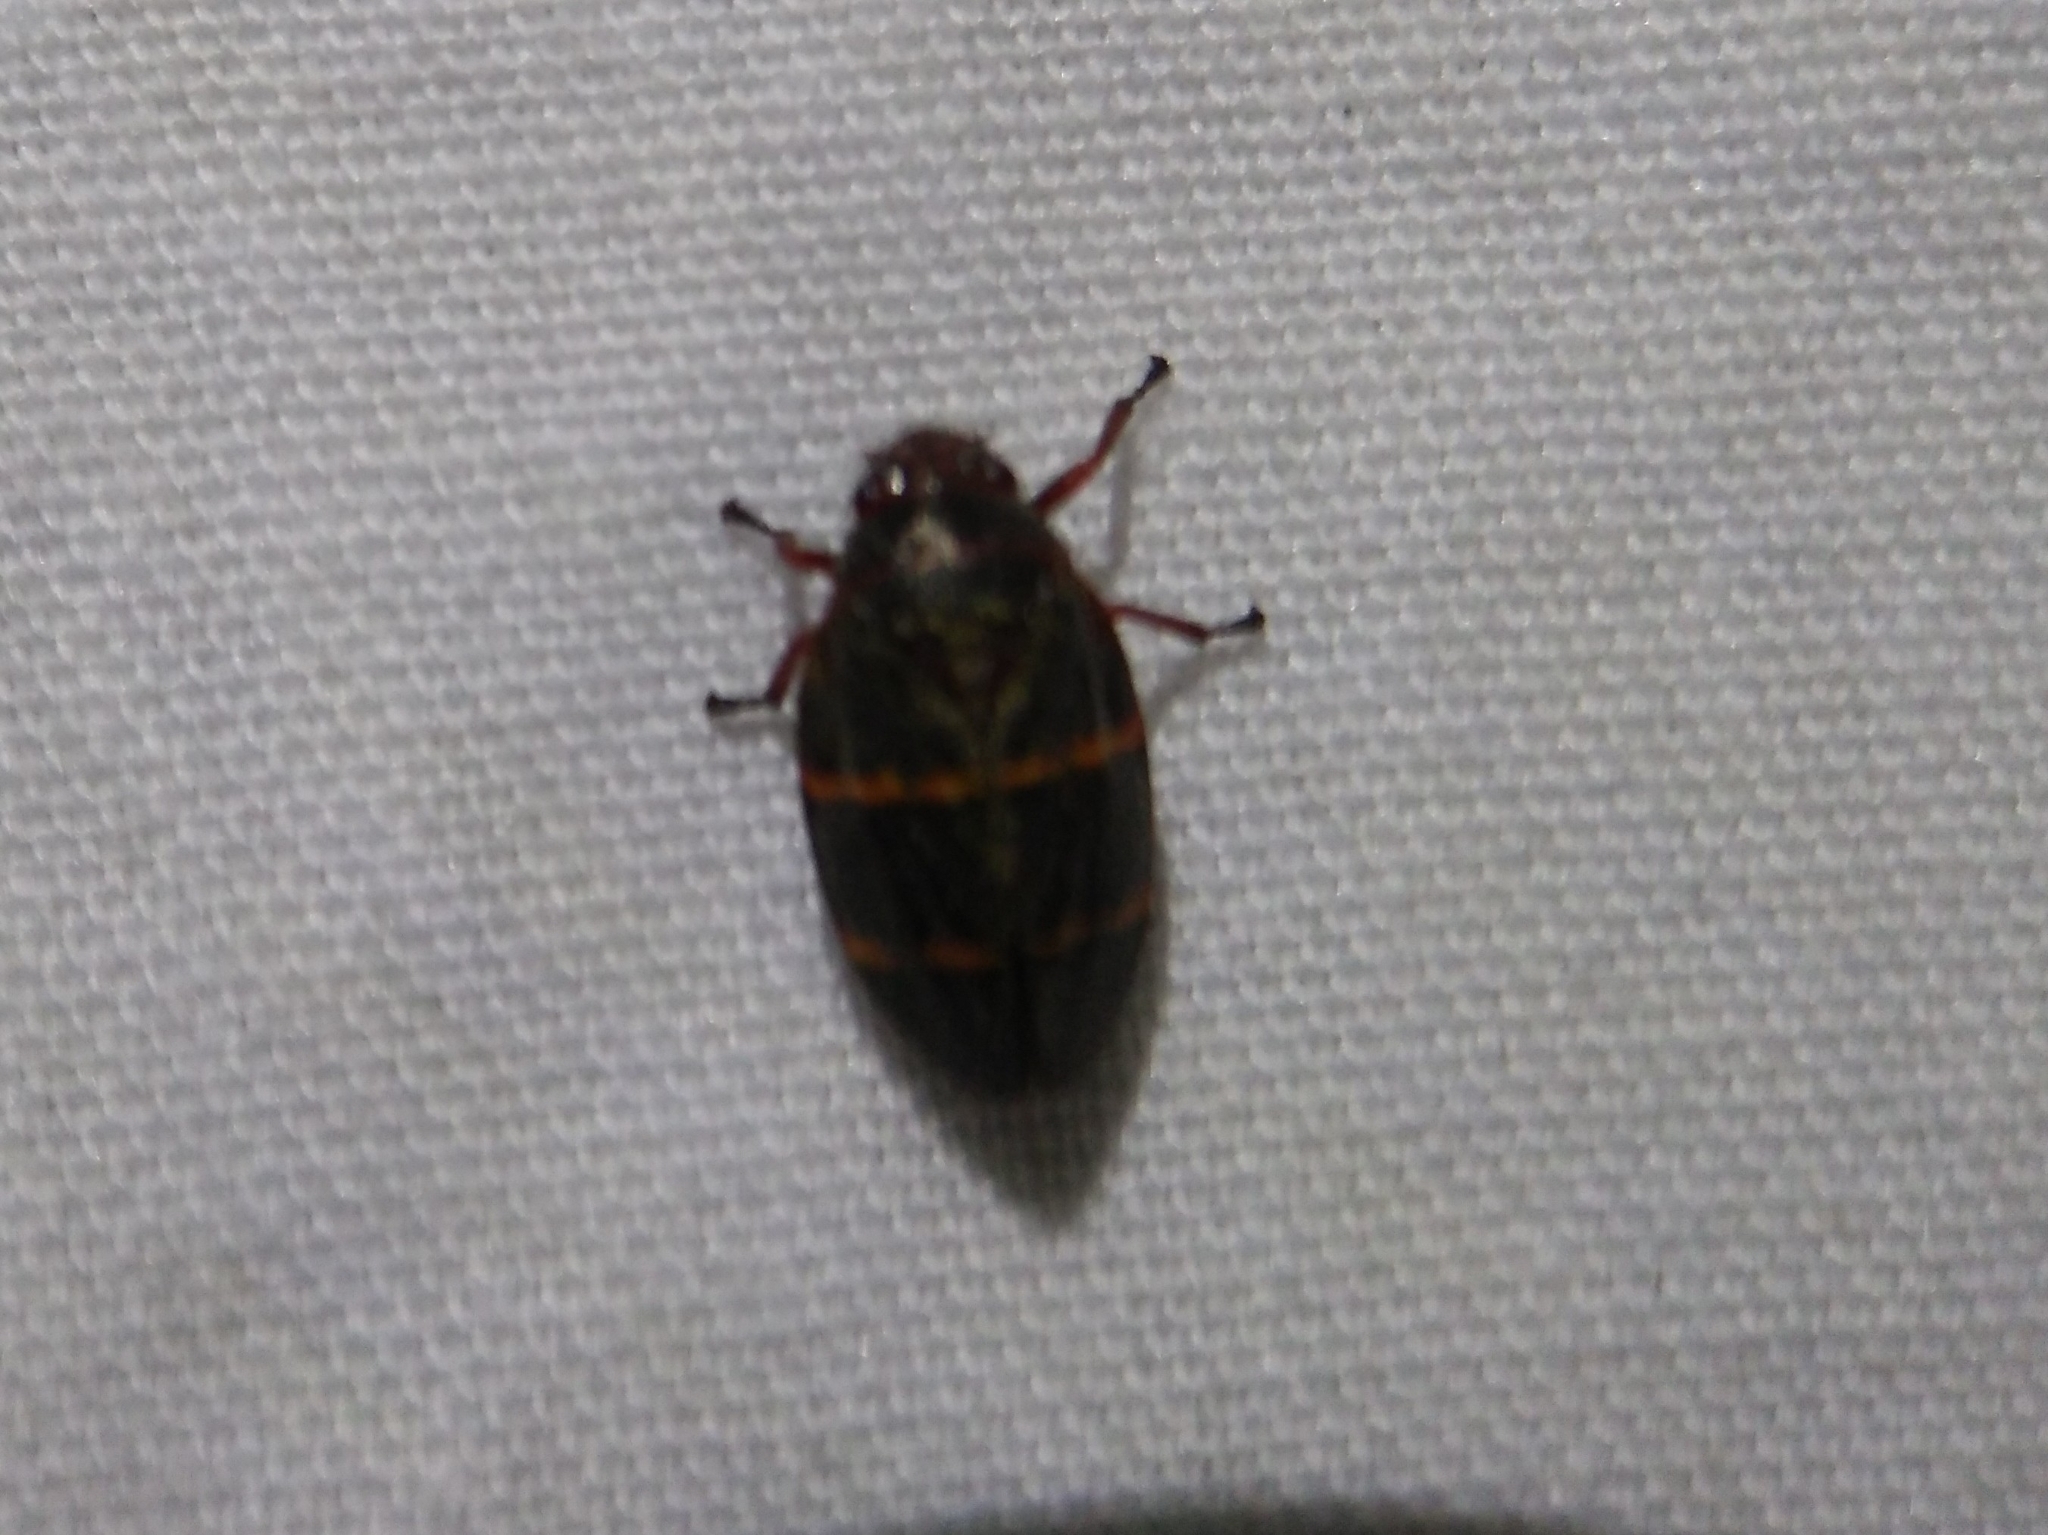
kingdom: Animalia
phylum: Arthropoda
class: Insecta
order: Hemiptera
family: Cercopidae
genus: Prosapia
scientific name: Prosapia bicincta
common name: Twolined spittlebug
